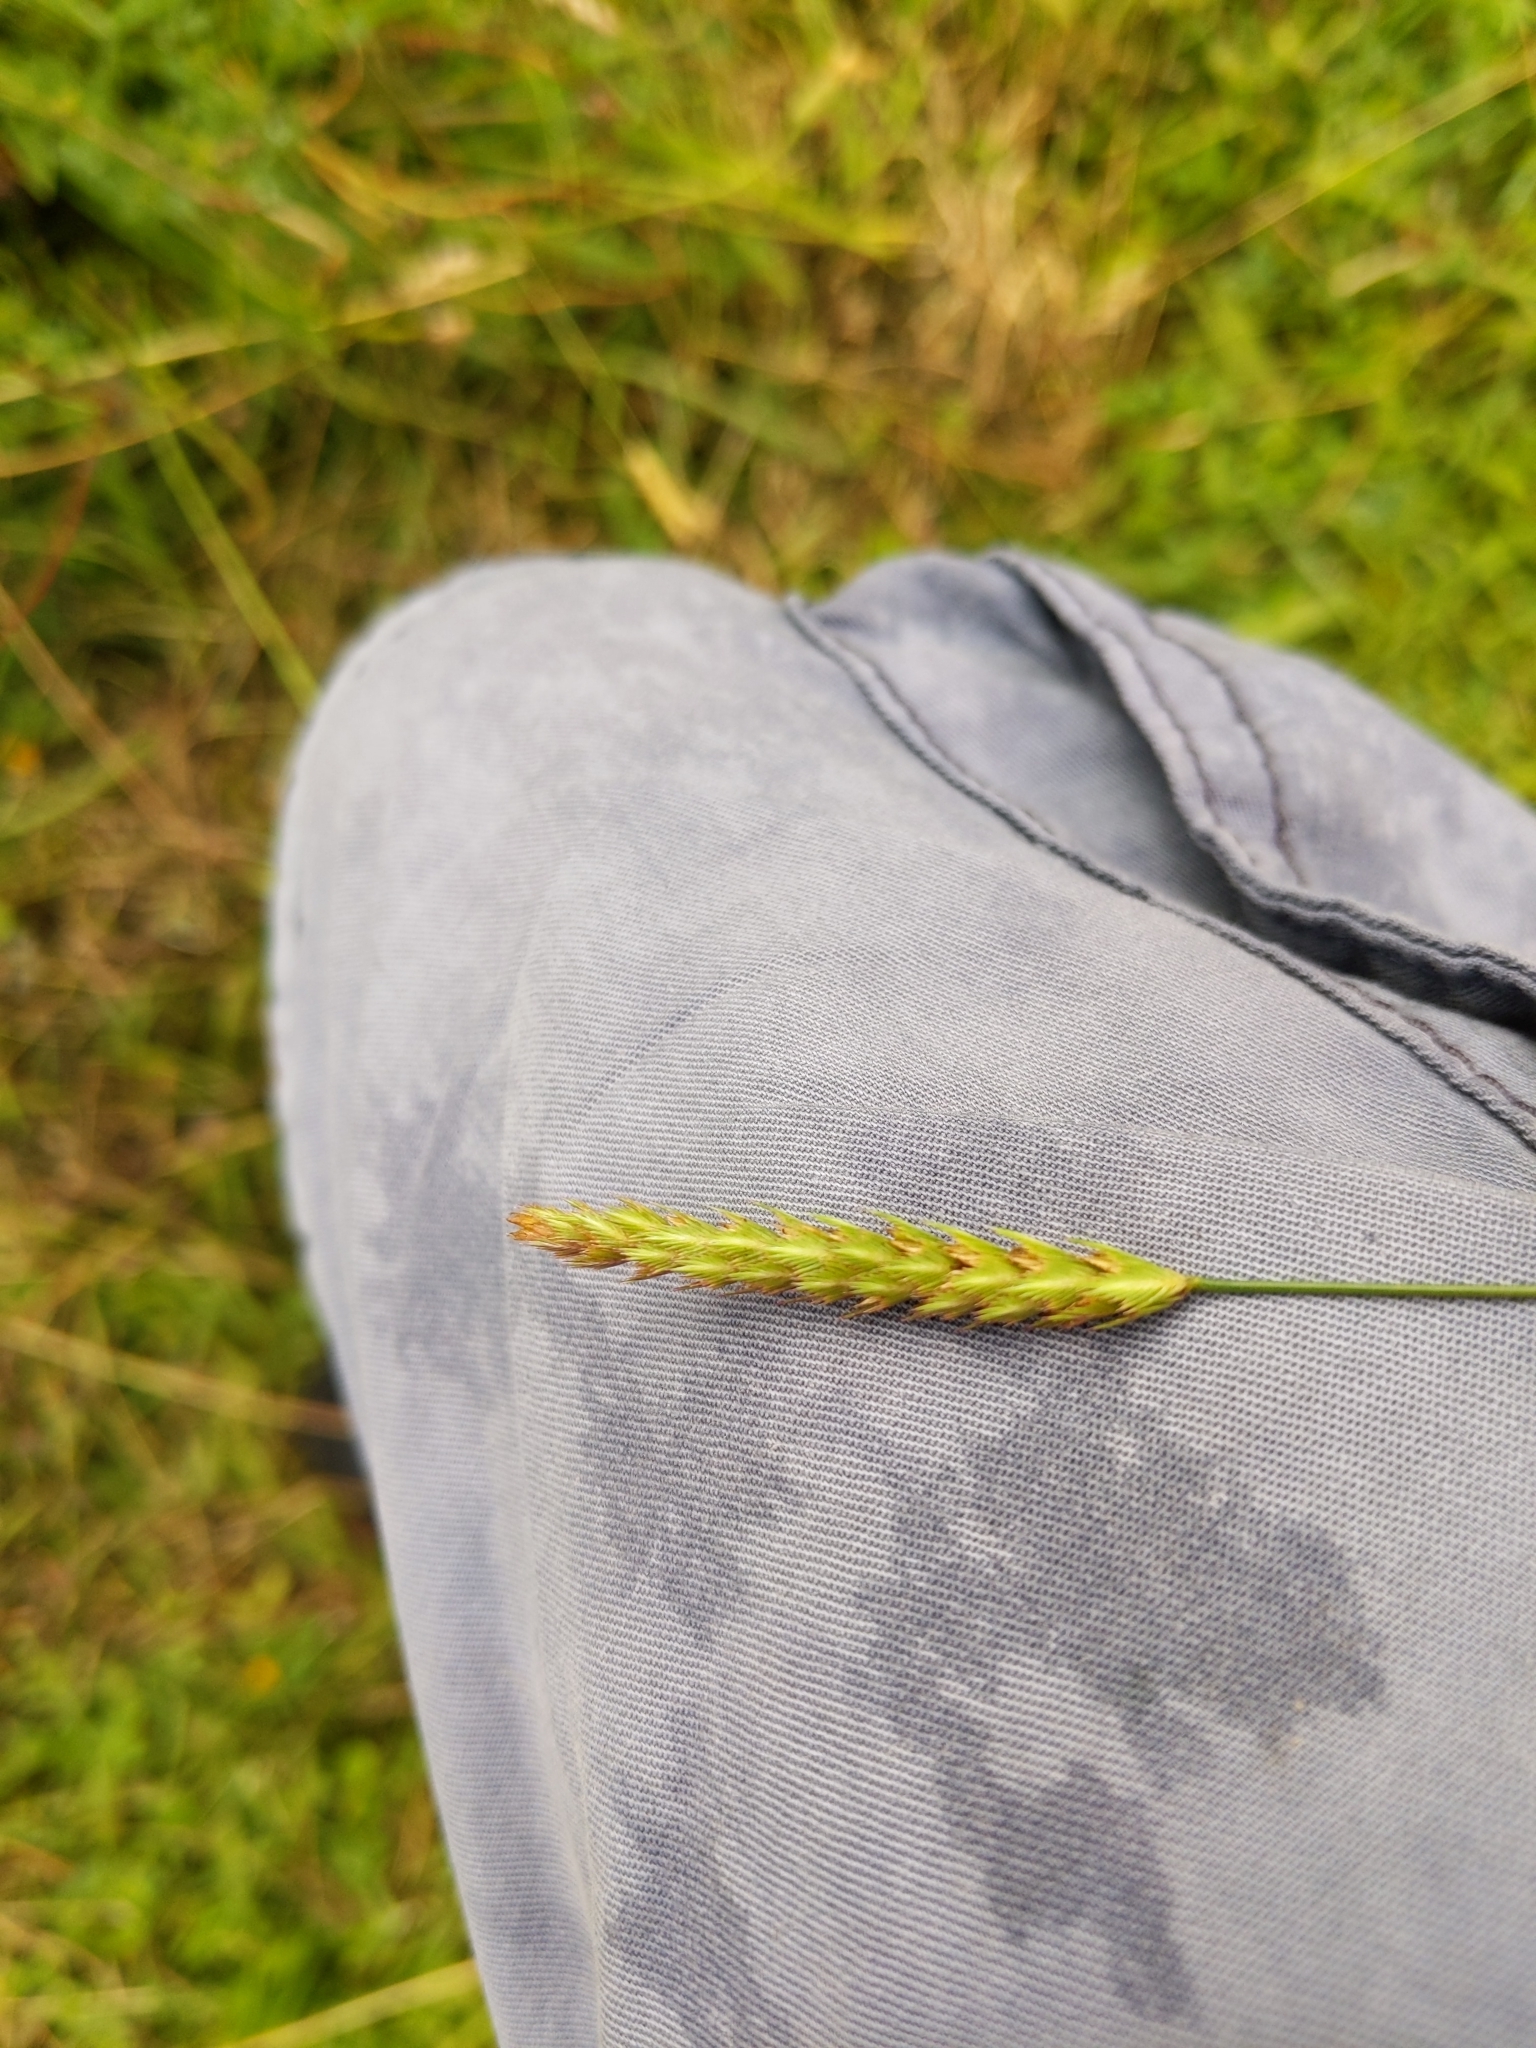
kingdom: Plantae
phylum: Tracheophyta
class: Liliopsida
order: Poales
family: Poaceae
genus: Cynosurus
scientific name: Cynosurus cristatus
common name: Crested dog's-tail
